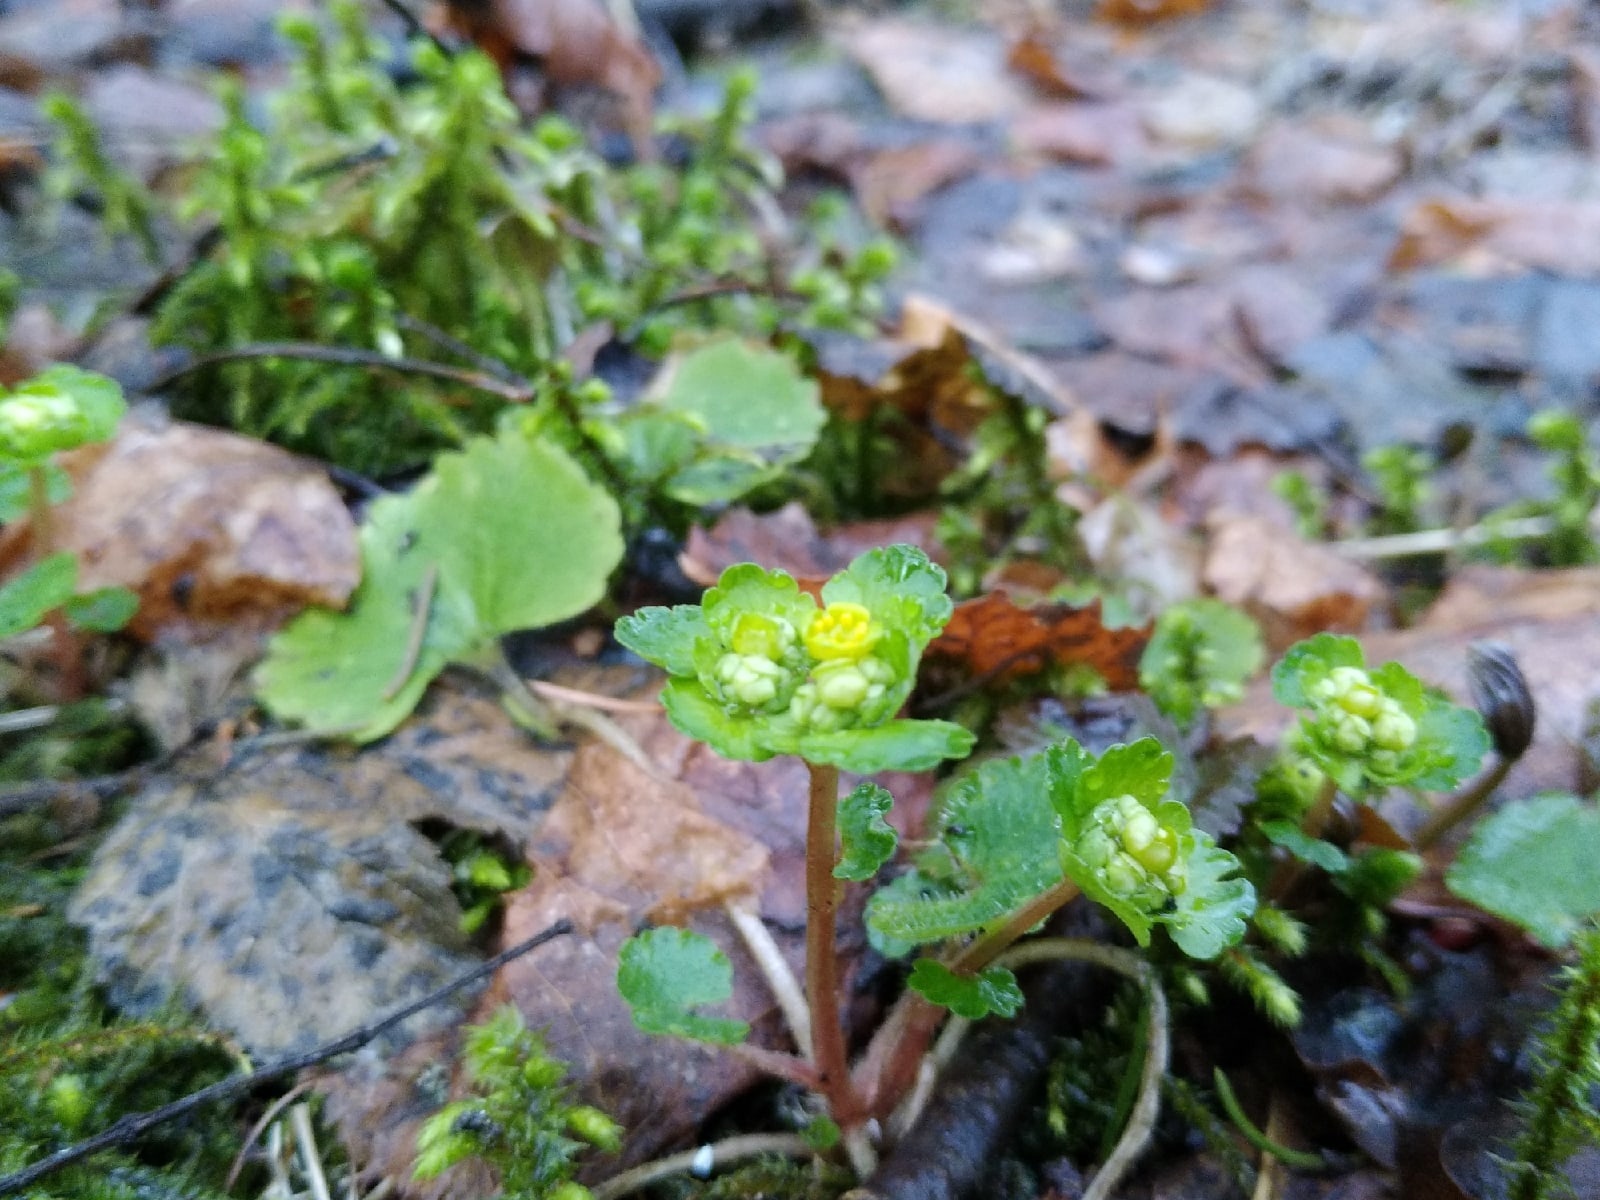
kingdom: Plantae
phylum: Tracheophyta
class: Magnoliopsida
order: Saxifragales
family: Saxifragaceae
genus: Chrysosplenium
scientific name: Chrysosplenium alternifolium
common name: Alternate-leaved golden-saxifrage
